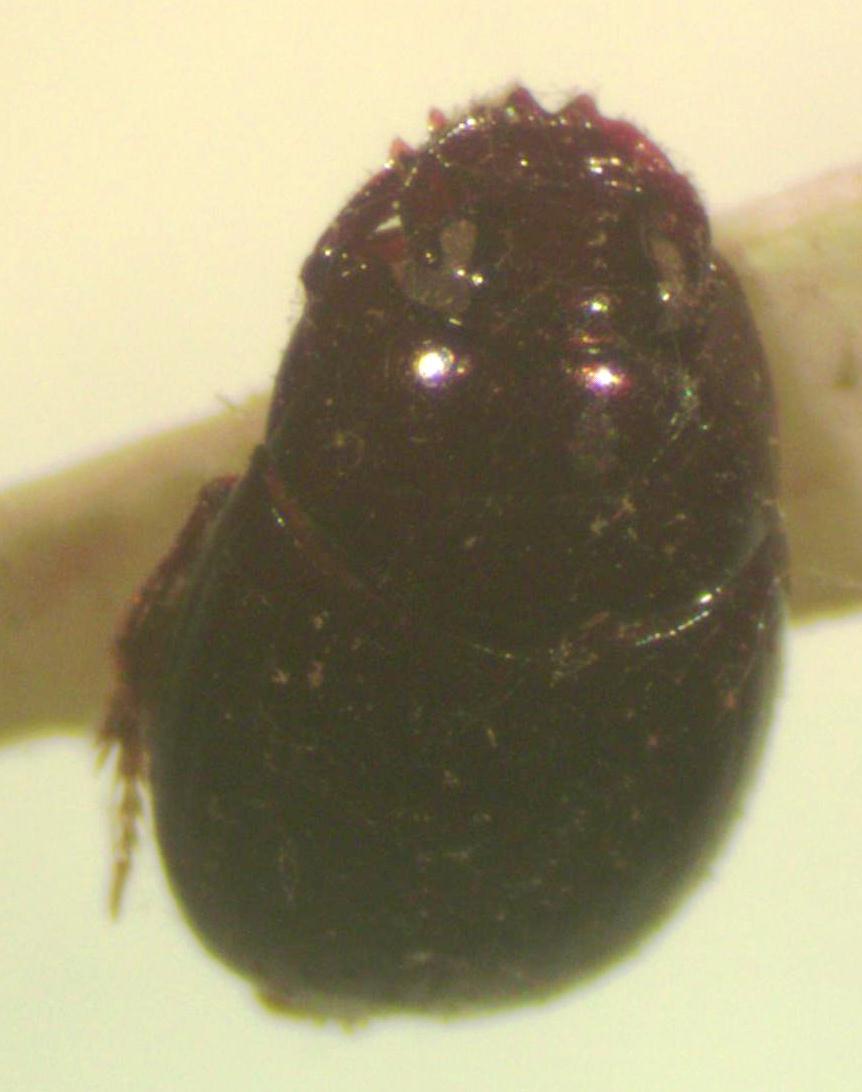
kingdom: Animalia
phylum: Arthropoda
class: Insecta
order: Coleoptera
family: Scarabaeidae
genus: Uroxys
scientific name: Uroxys micros
